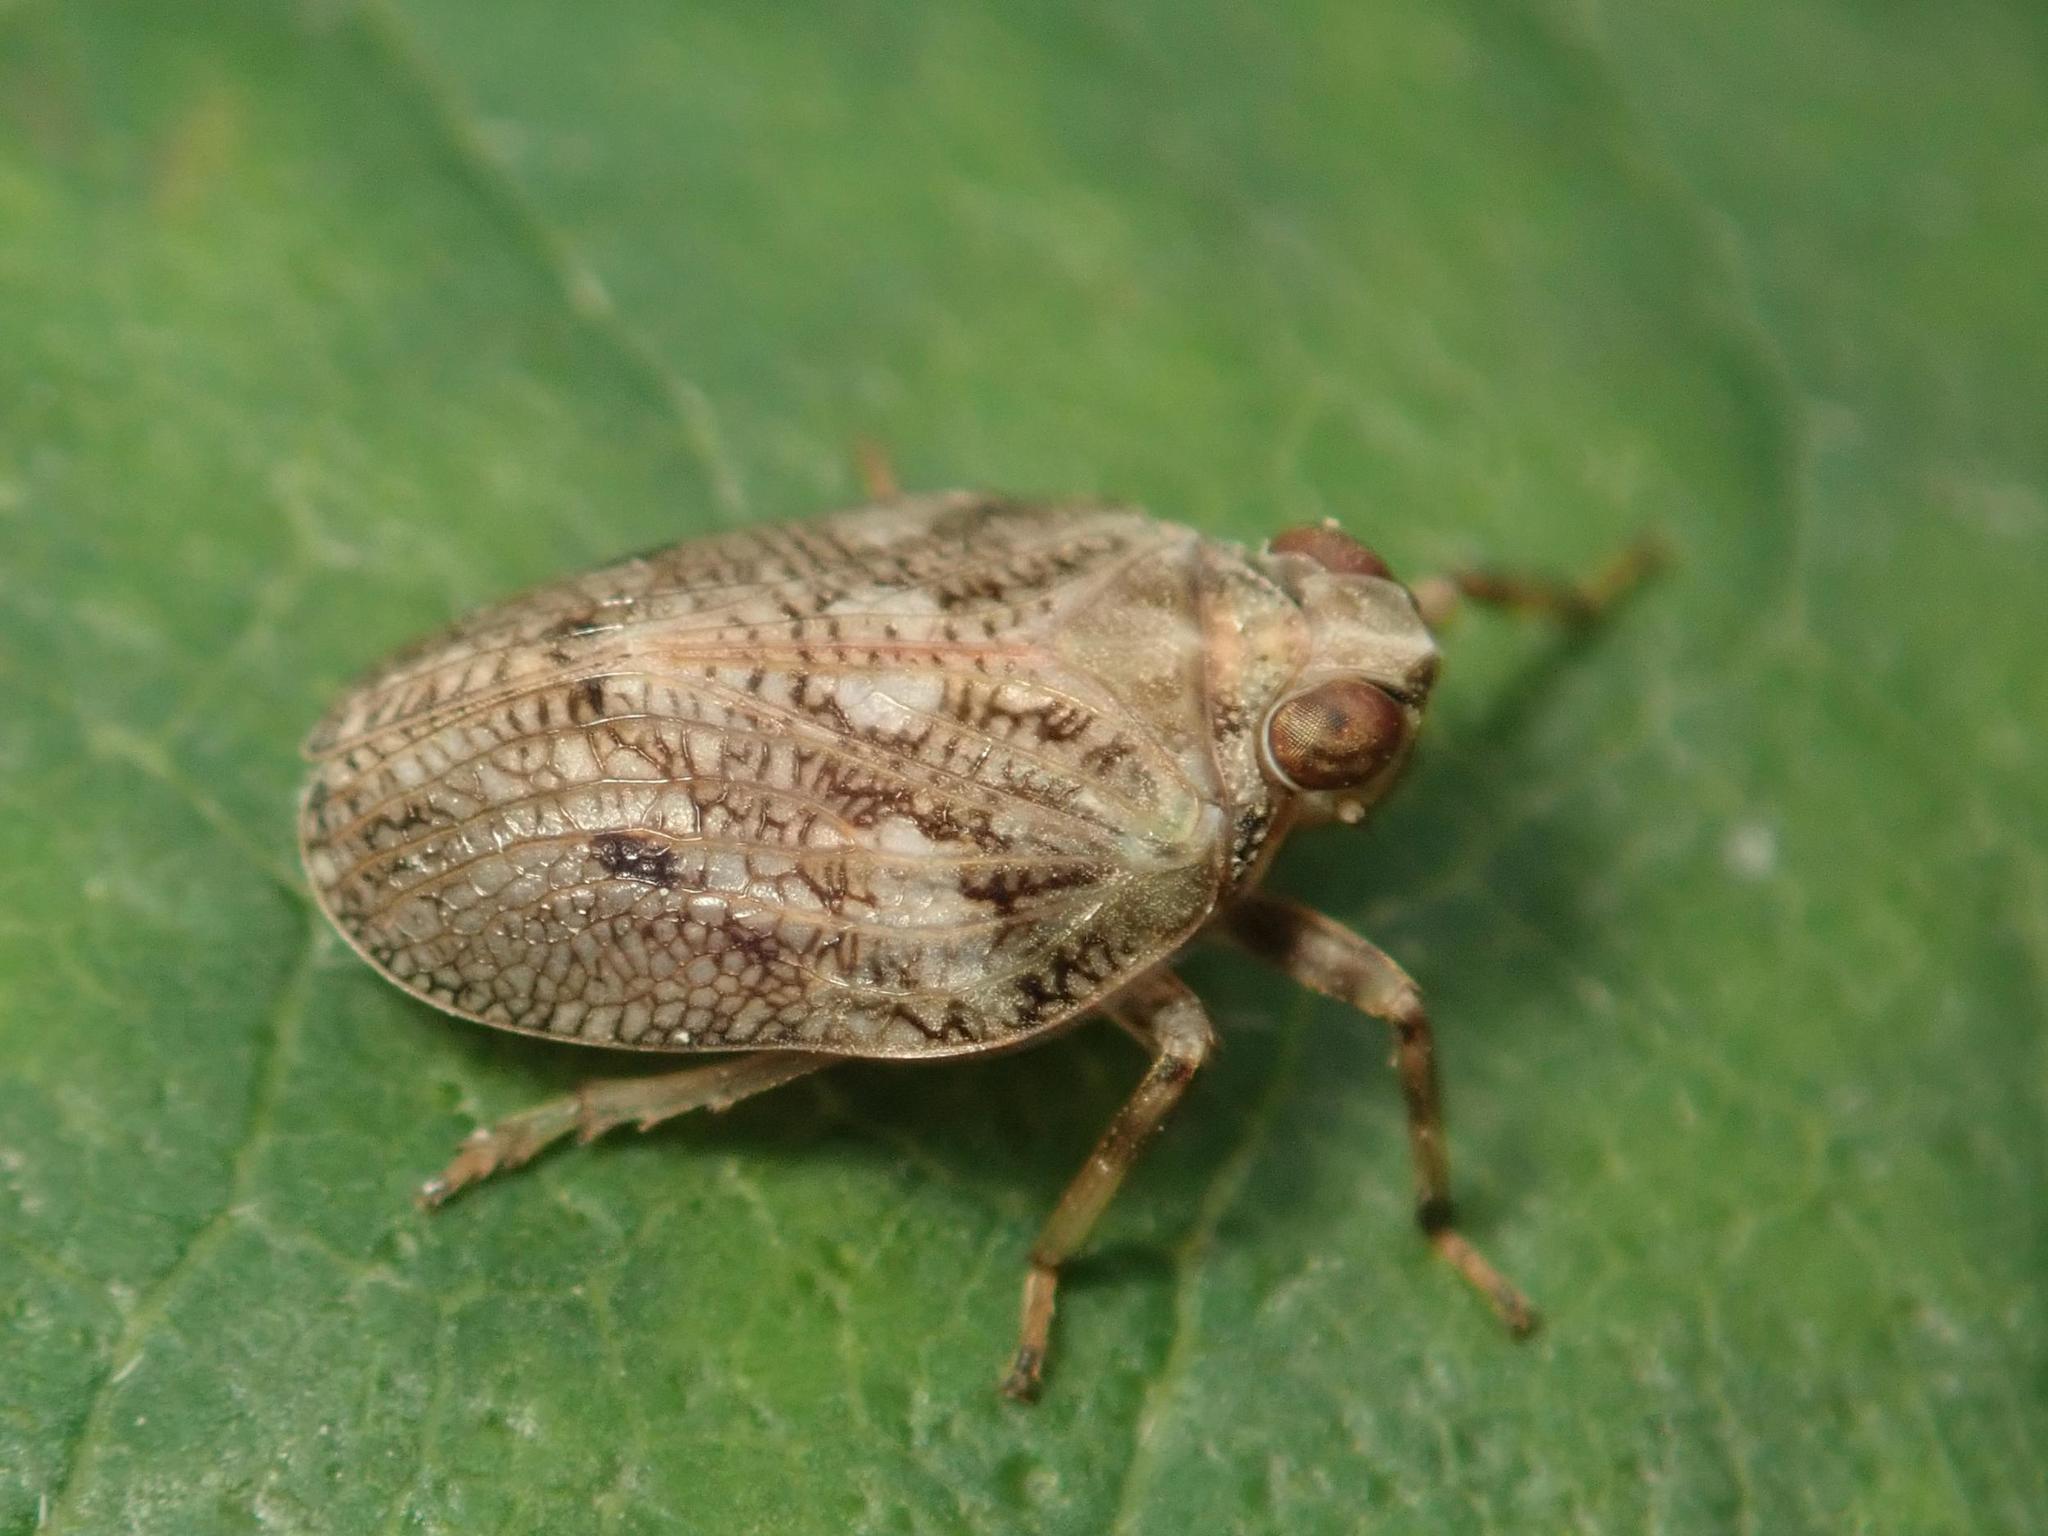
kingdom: Animalia
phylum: Arthropoda
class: Insecta
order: Hemiptera
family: Issidae
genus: Issus
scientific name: Issus coleoptratus
